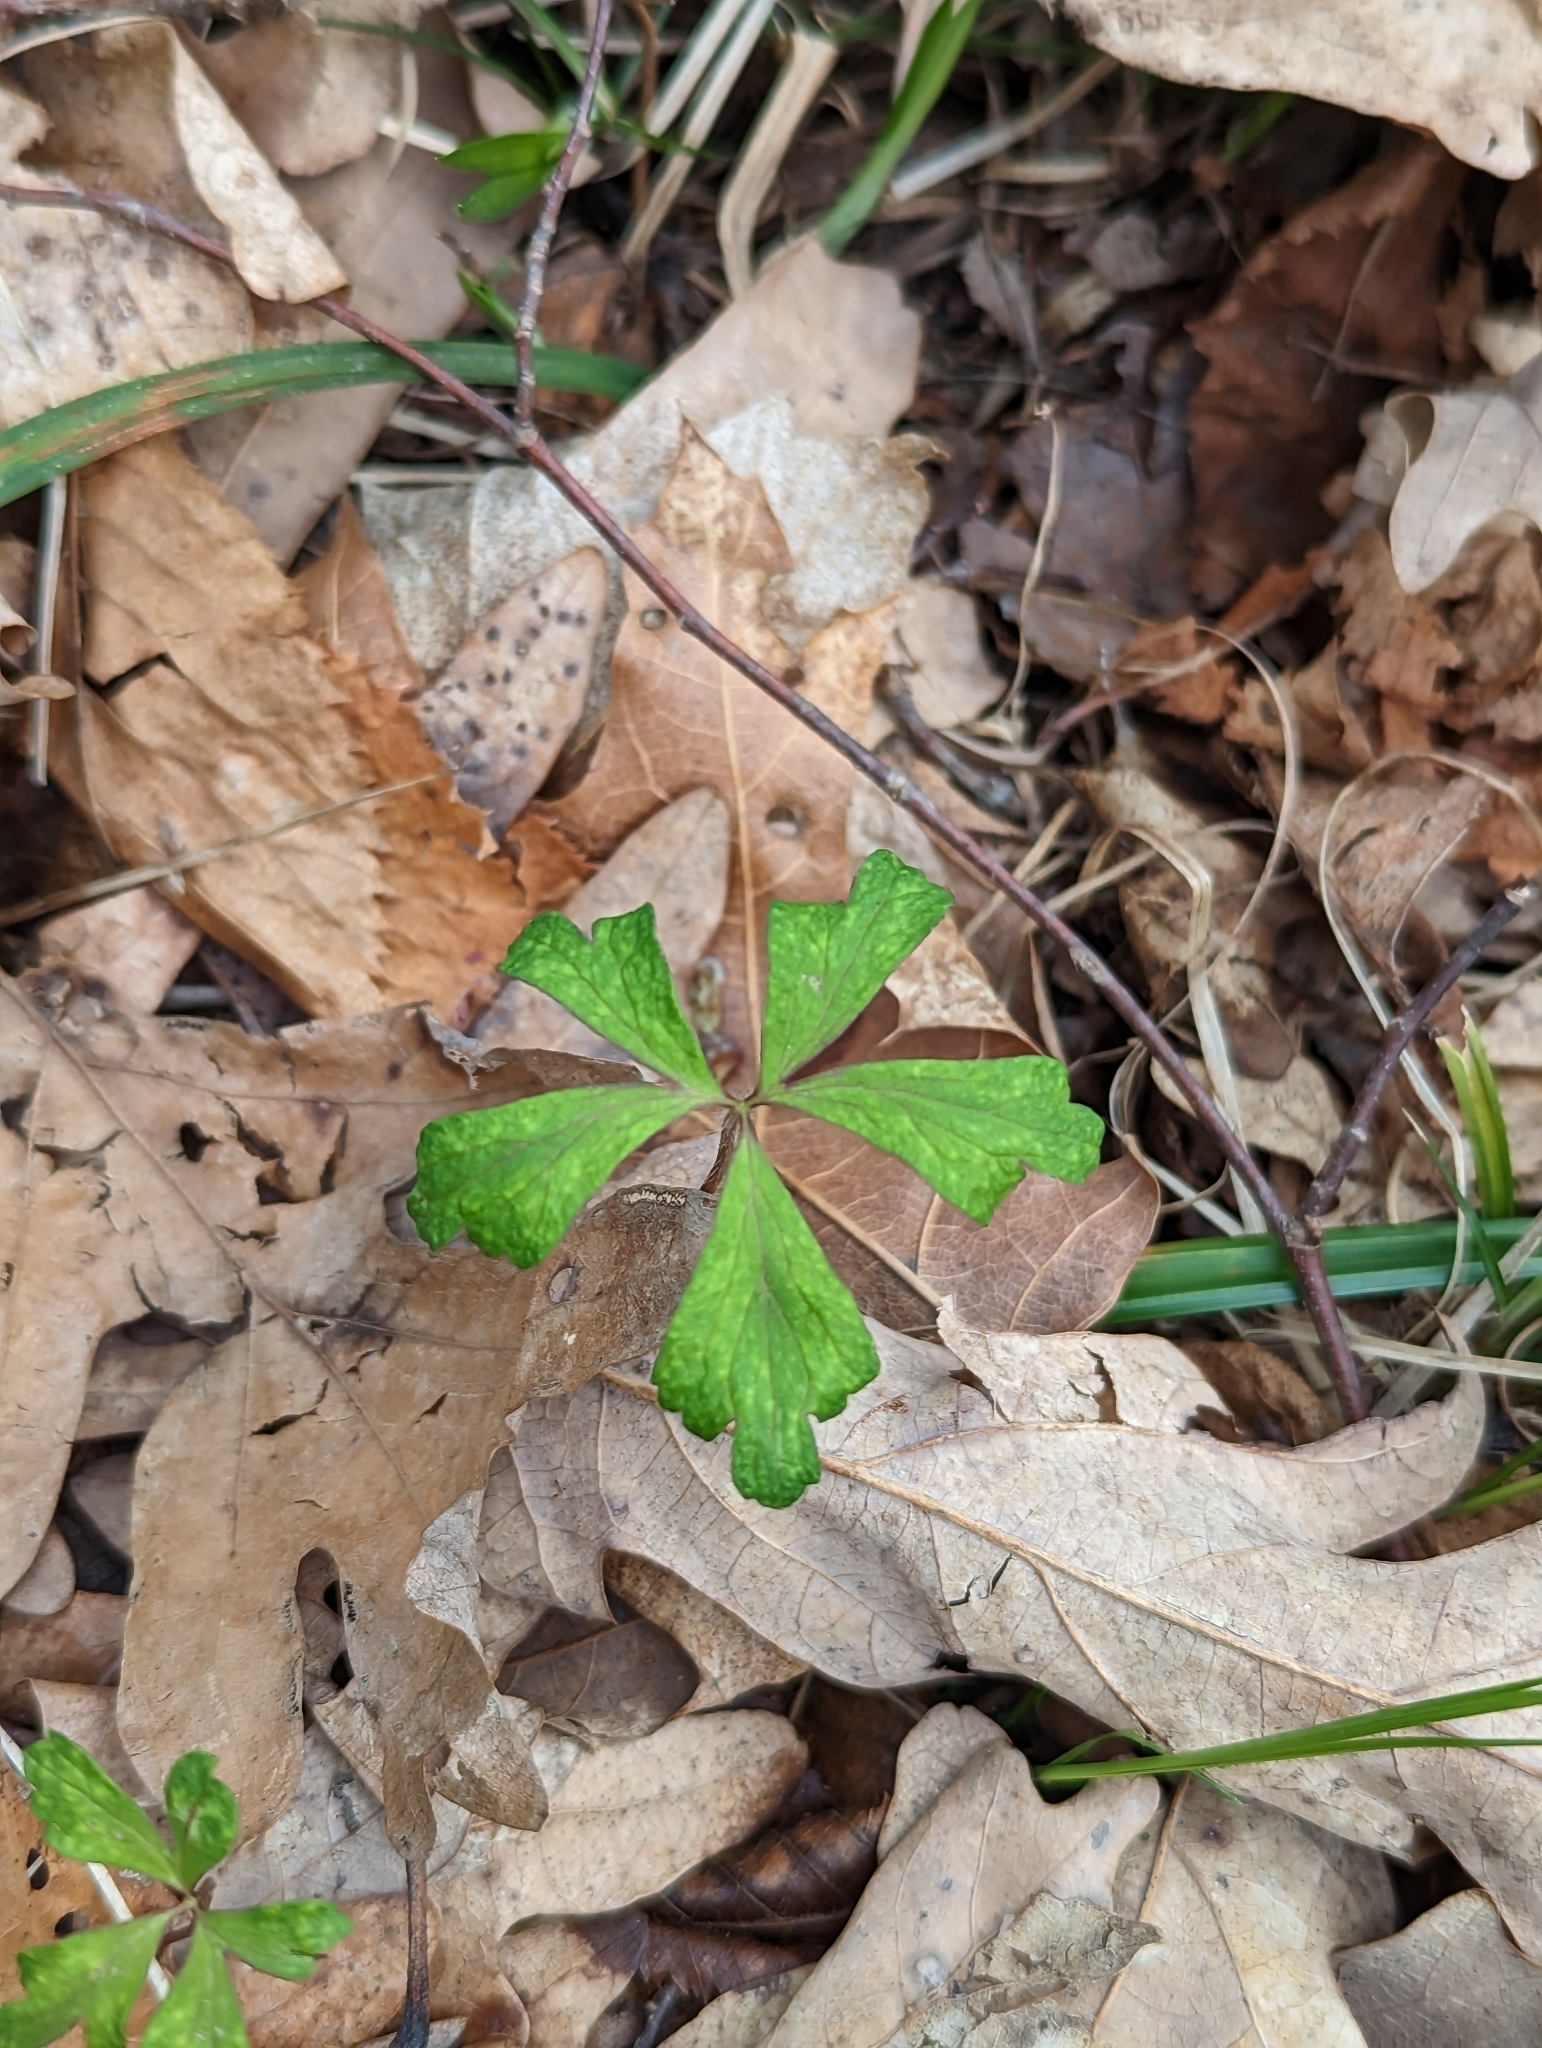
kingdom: Plantae
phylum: Tracheophyta
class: Magnoliopsida
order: Ranunculales
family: Ranunculaceae
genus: Anemone
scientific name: Anemone quinquefolia
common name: Wood anemone
